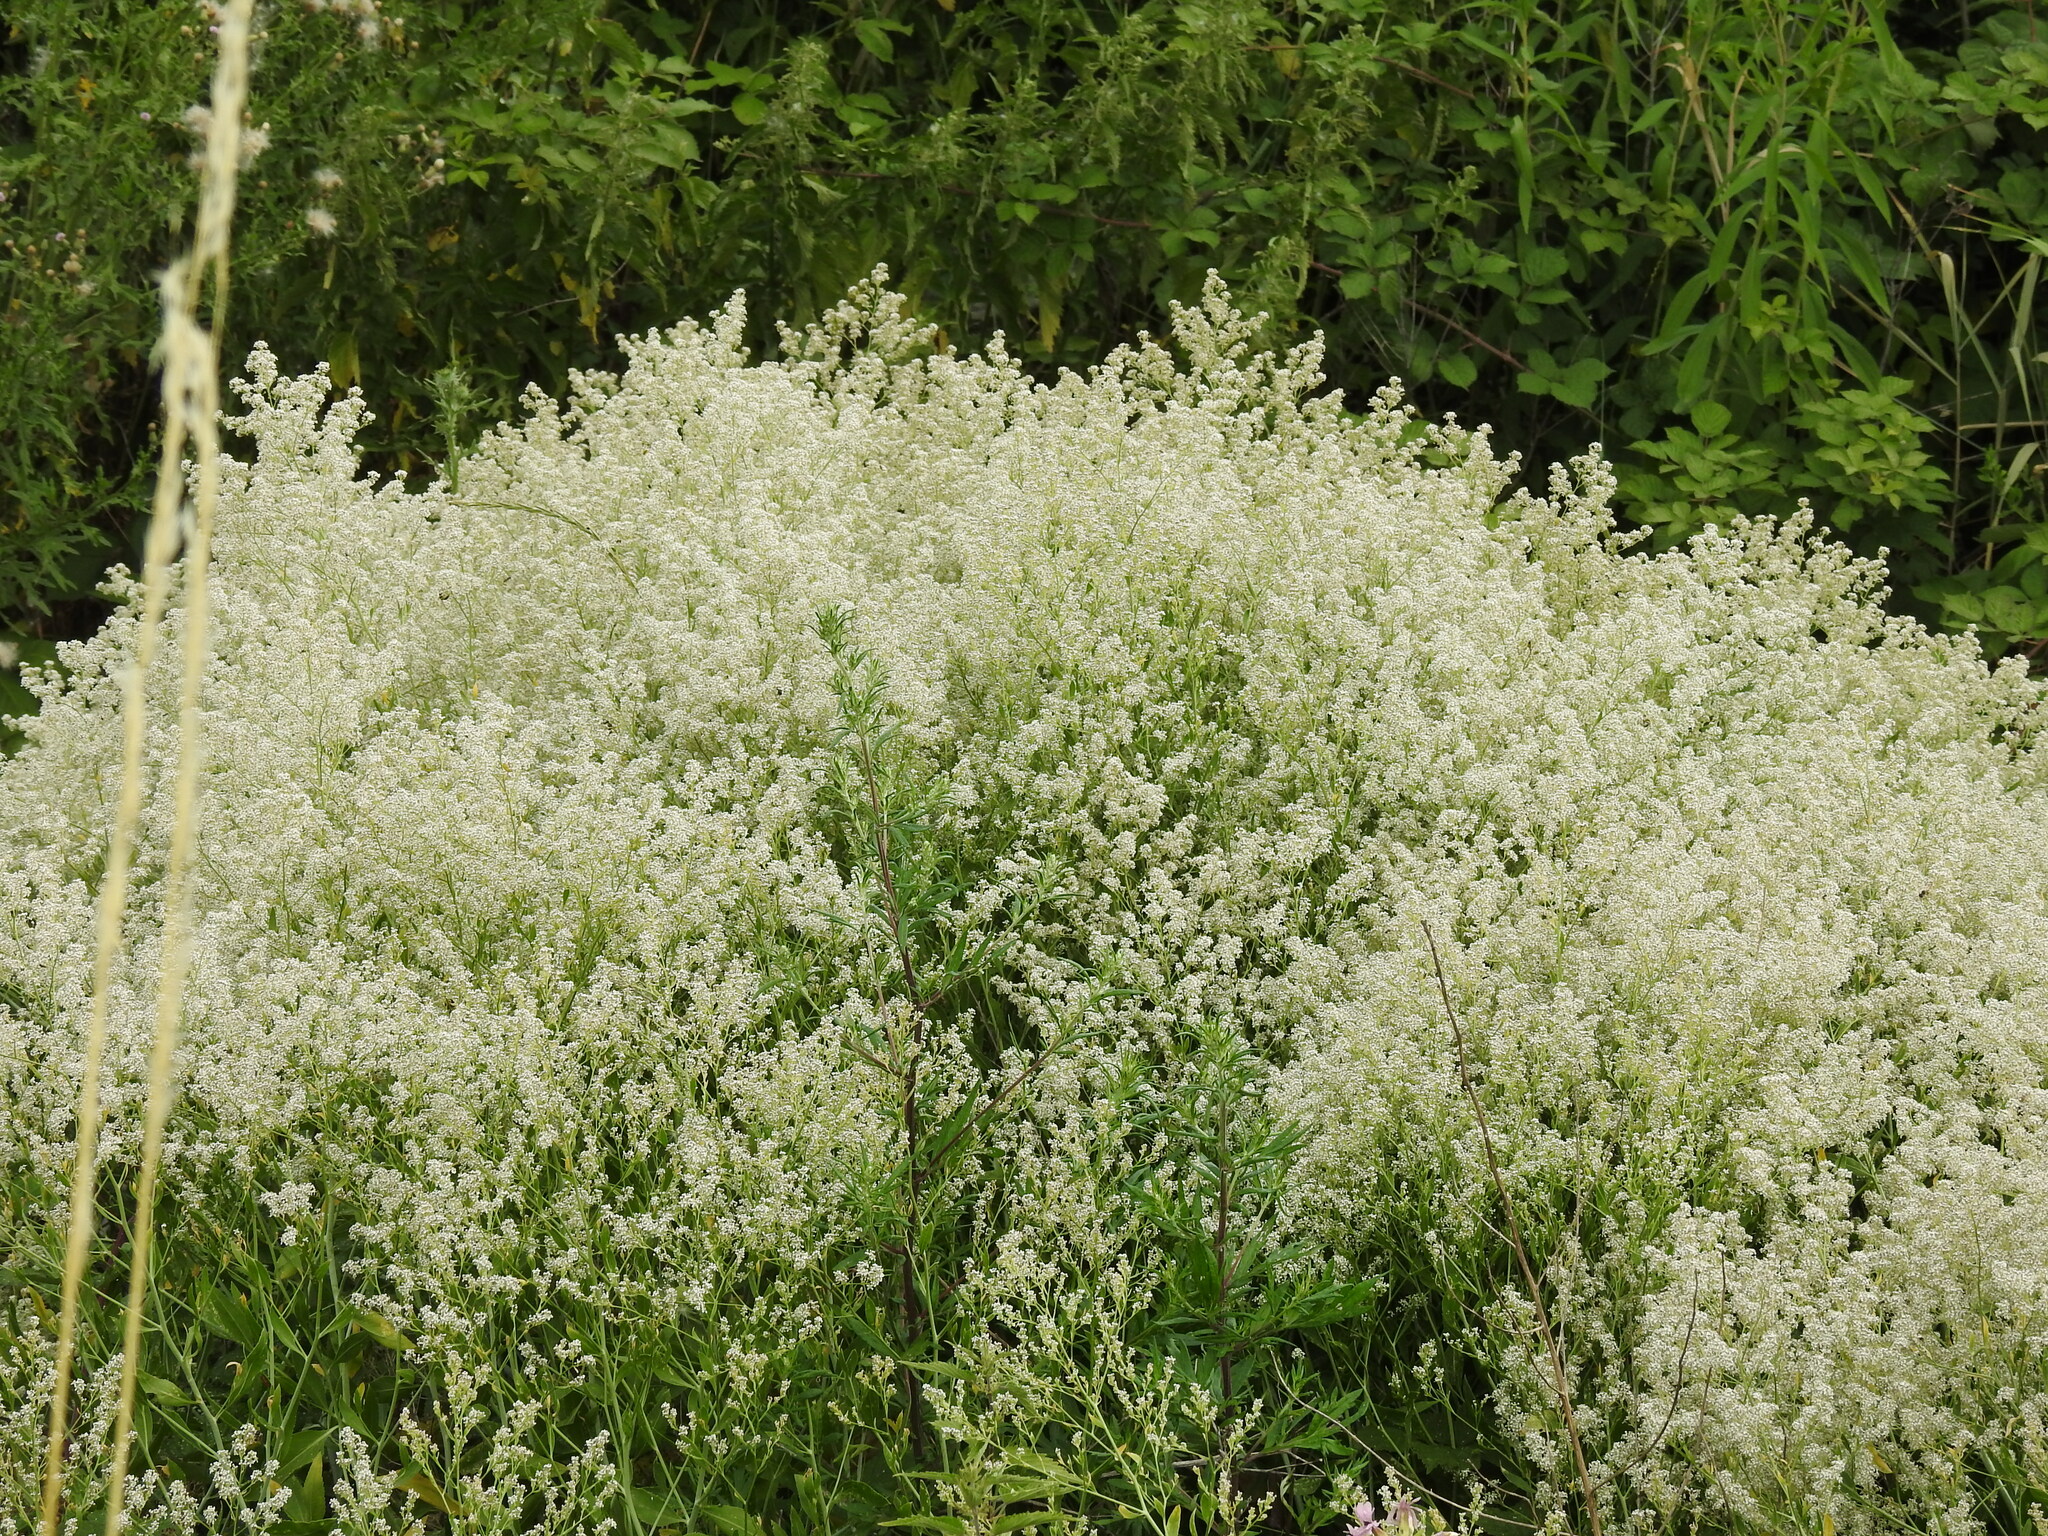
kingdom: Plantae
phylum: Tracheophyta
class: Magnoliopsida
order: Brassicales
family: Brassicaceae
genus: Lepidium
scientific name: Lepidium latifolium
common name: Dittander
